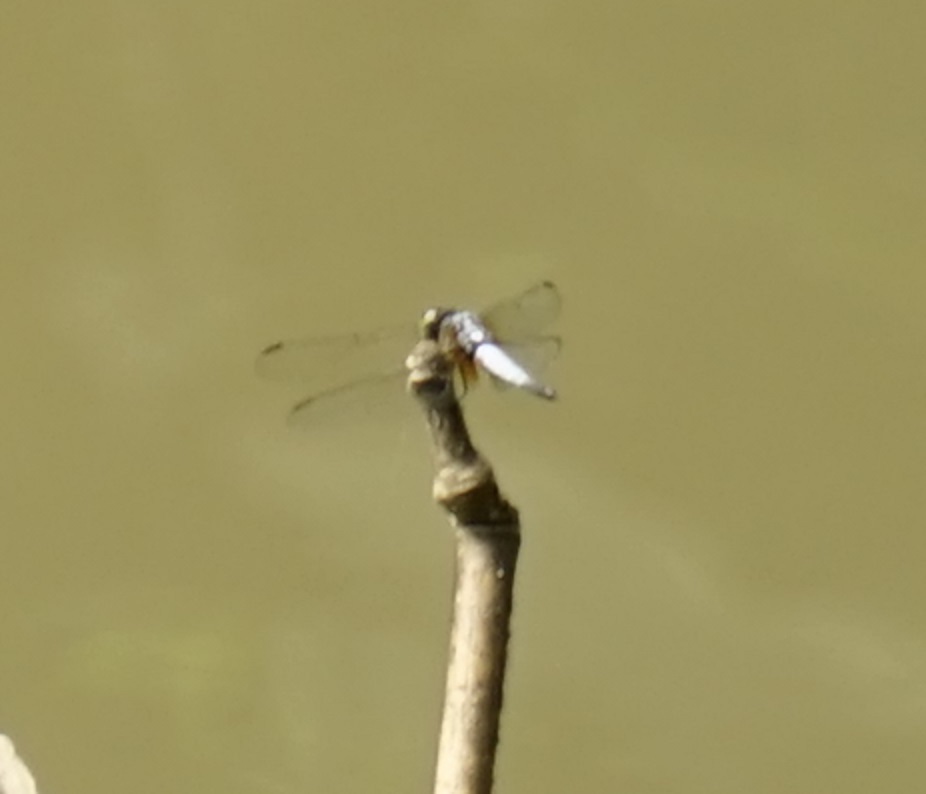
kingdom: Animalia
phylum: Arthropoda
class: Insecta
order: Odonata
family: Libellulidae
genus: Brachydiplax
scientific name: Brachydiplax chalybea
